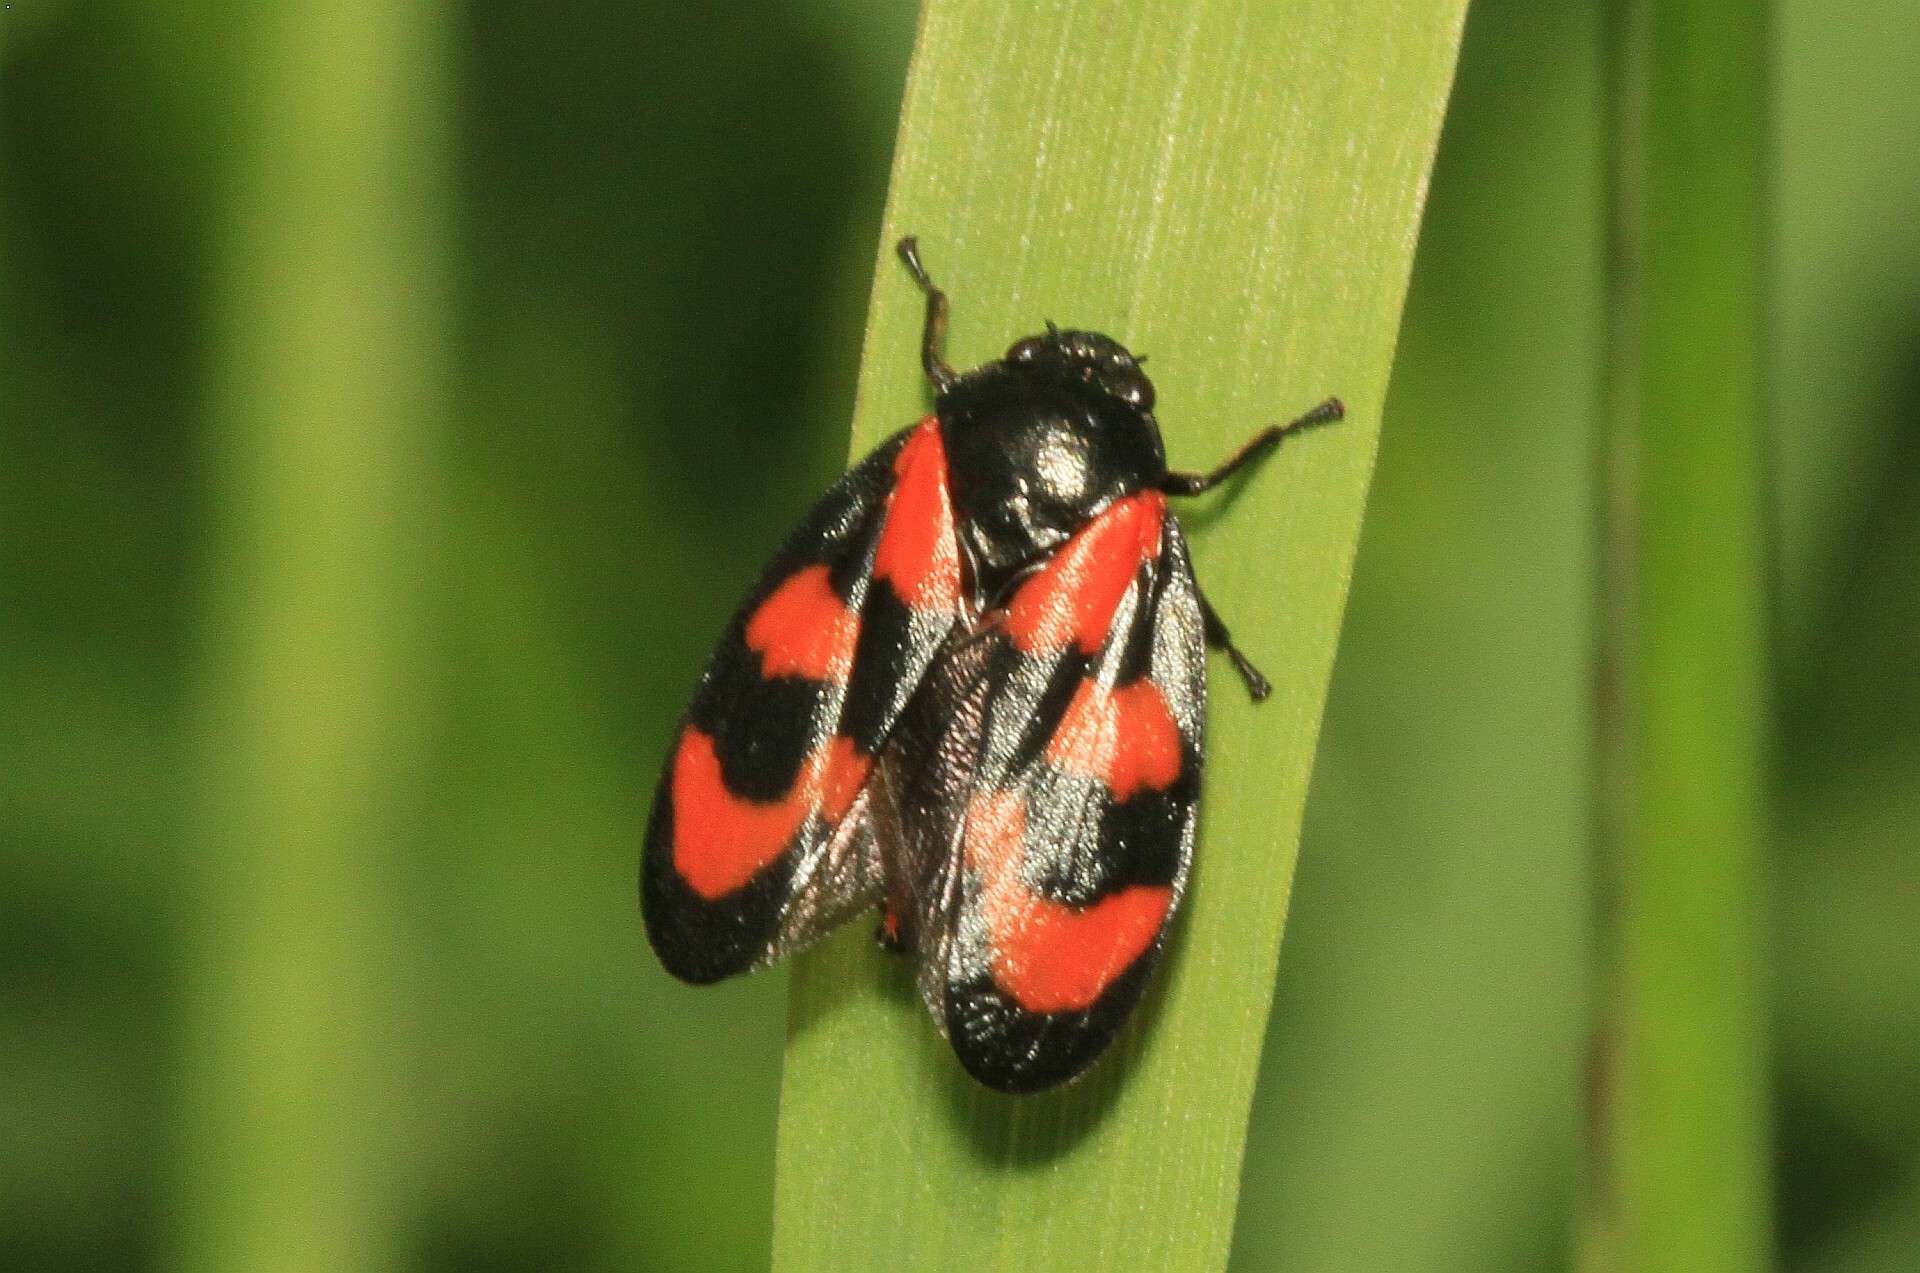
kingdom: Animalia
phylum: Arthropoda
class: Insecta
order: Hemiptera
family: Cercopidae
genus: Cercopis
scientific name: Cercopis vulnerata
